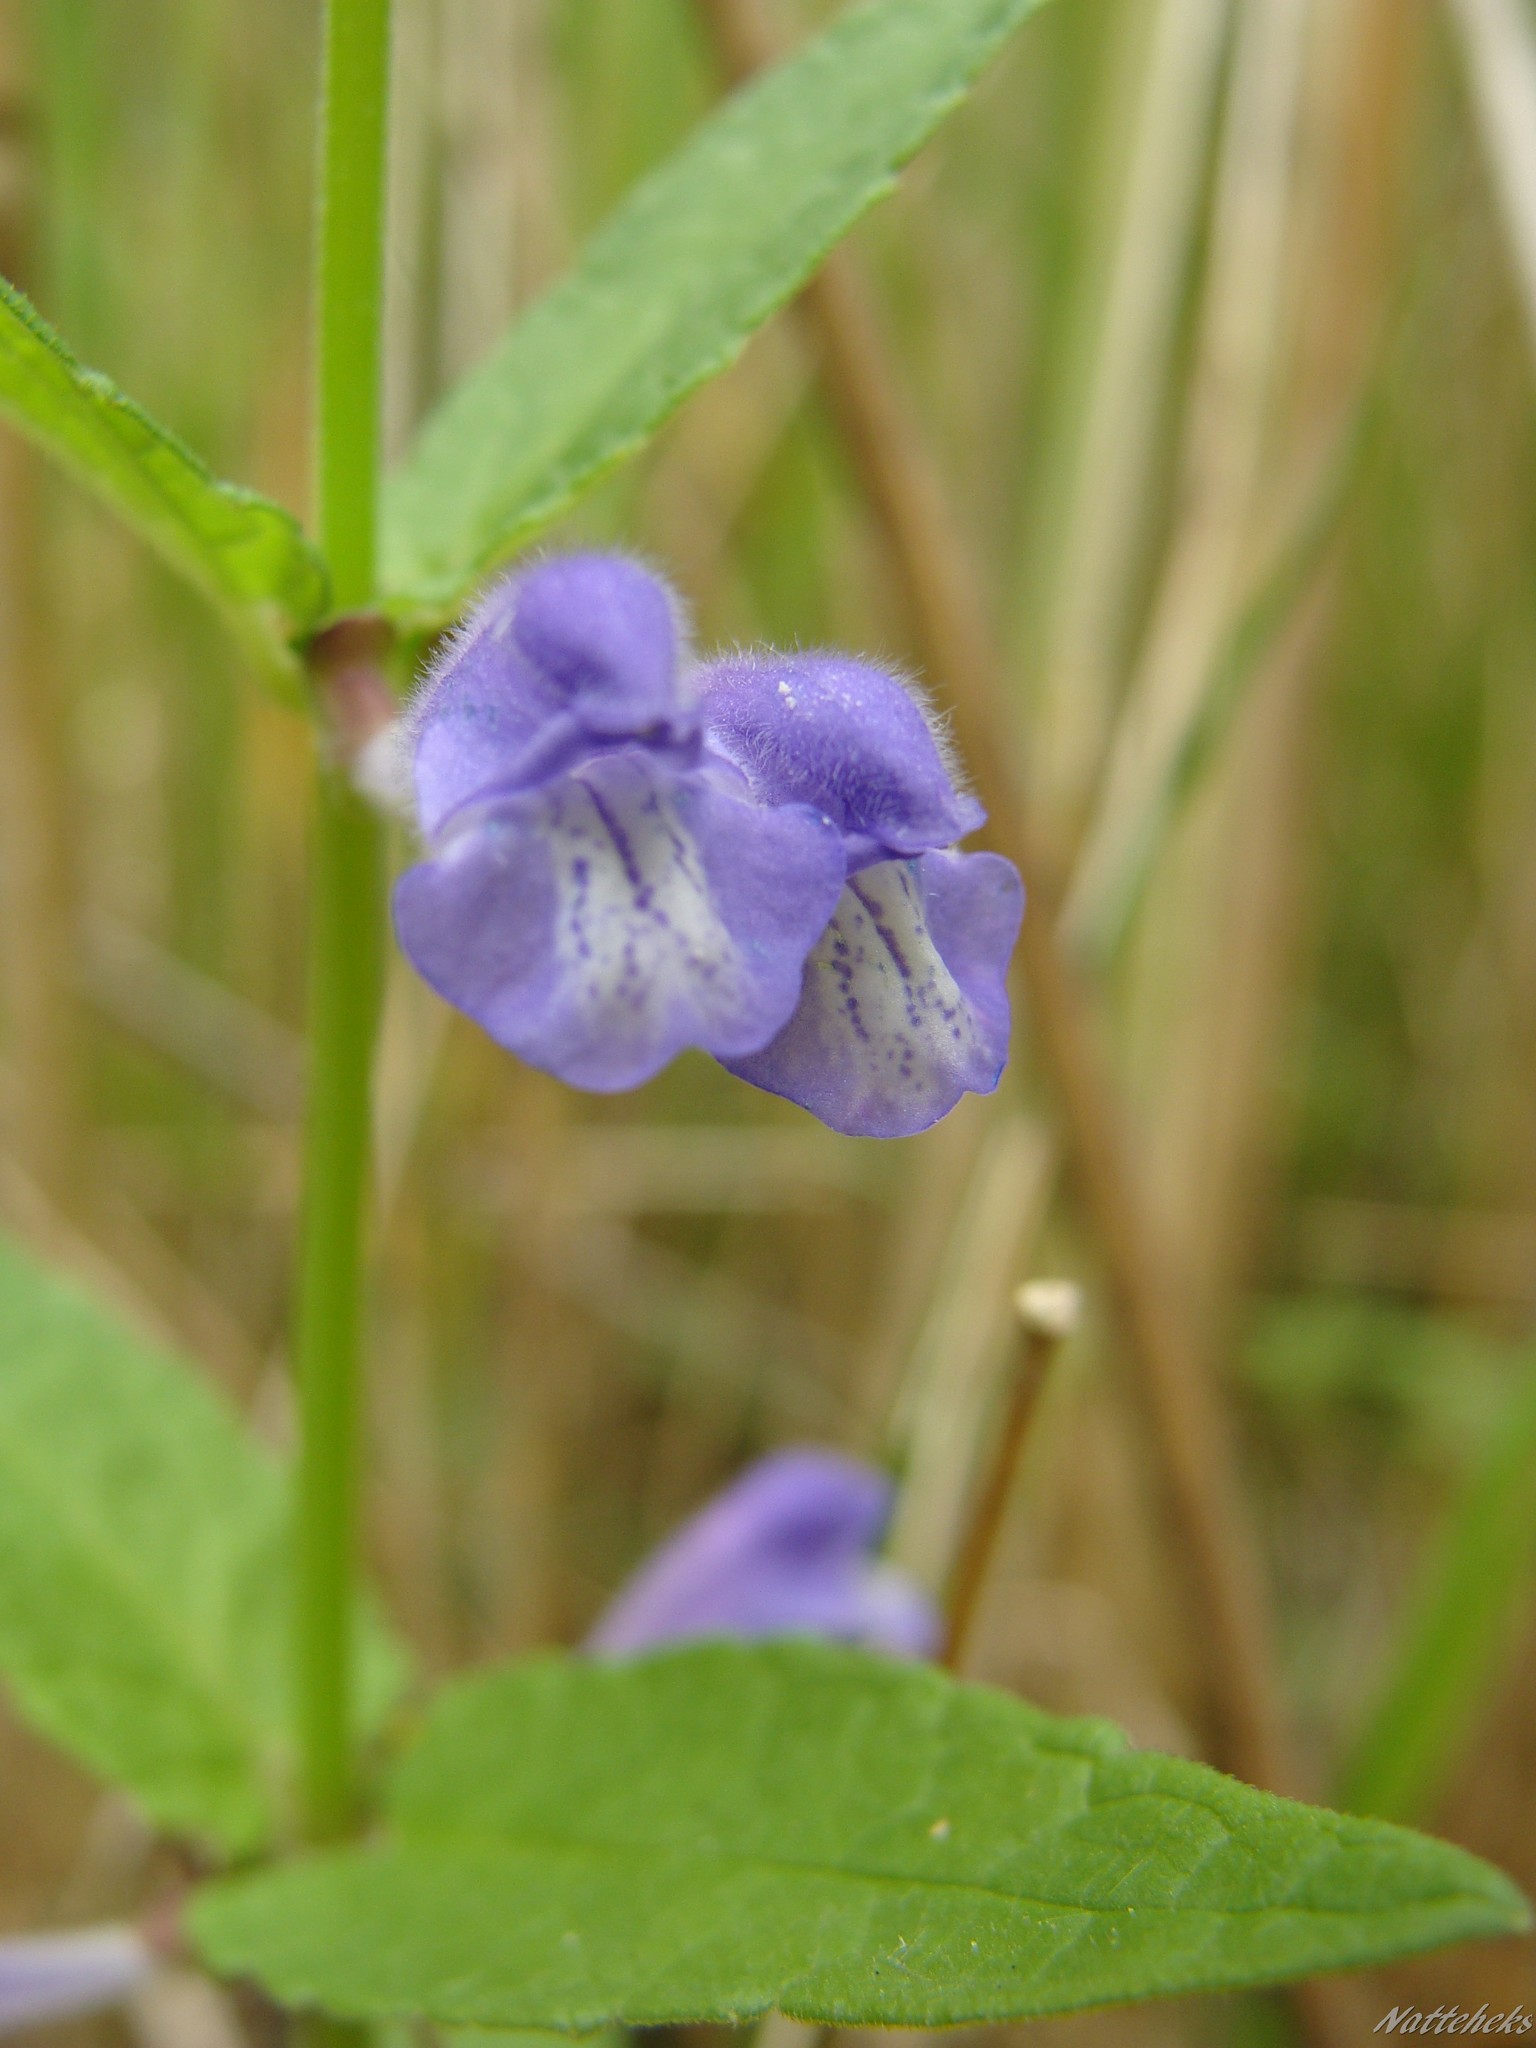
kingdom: Plantae
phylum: Tracheophyta
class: Magnoliopsida
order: Lamiales
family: Lamiaceae
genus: Scutellaria
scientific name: Scutellaria galericulata
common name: Skullcap
